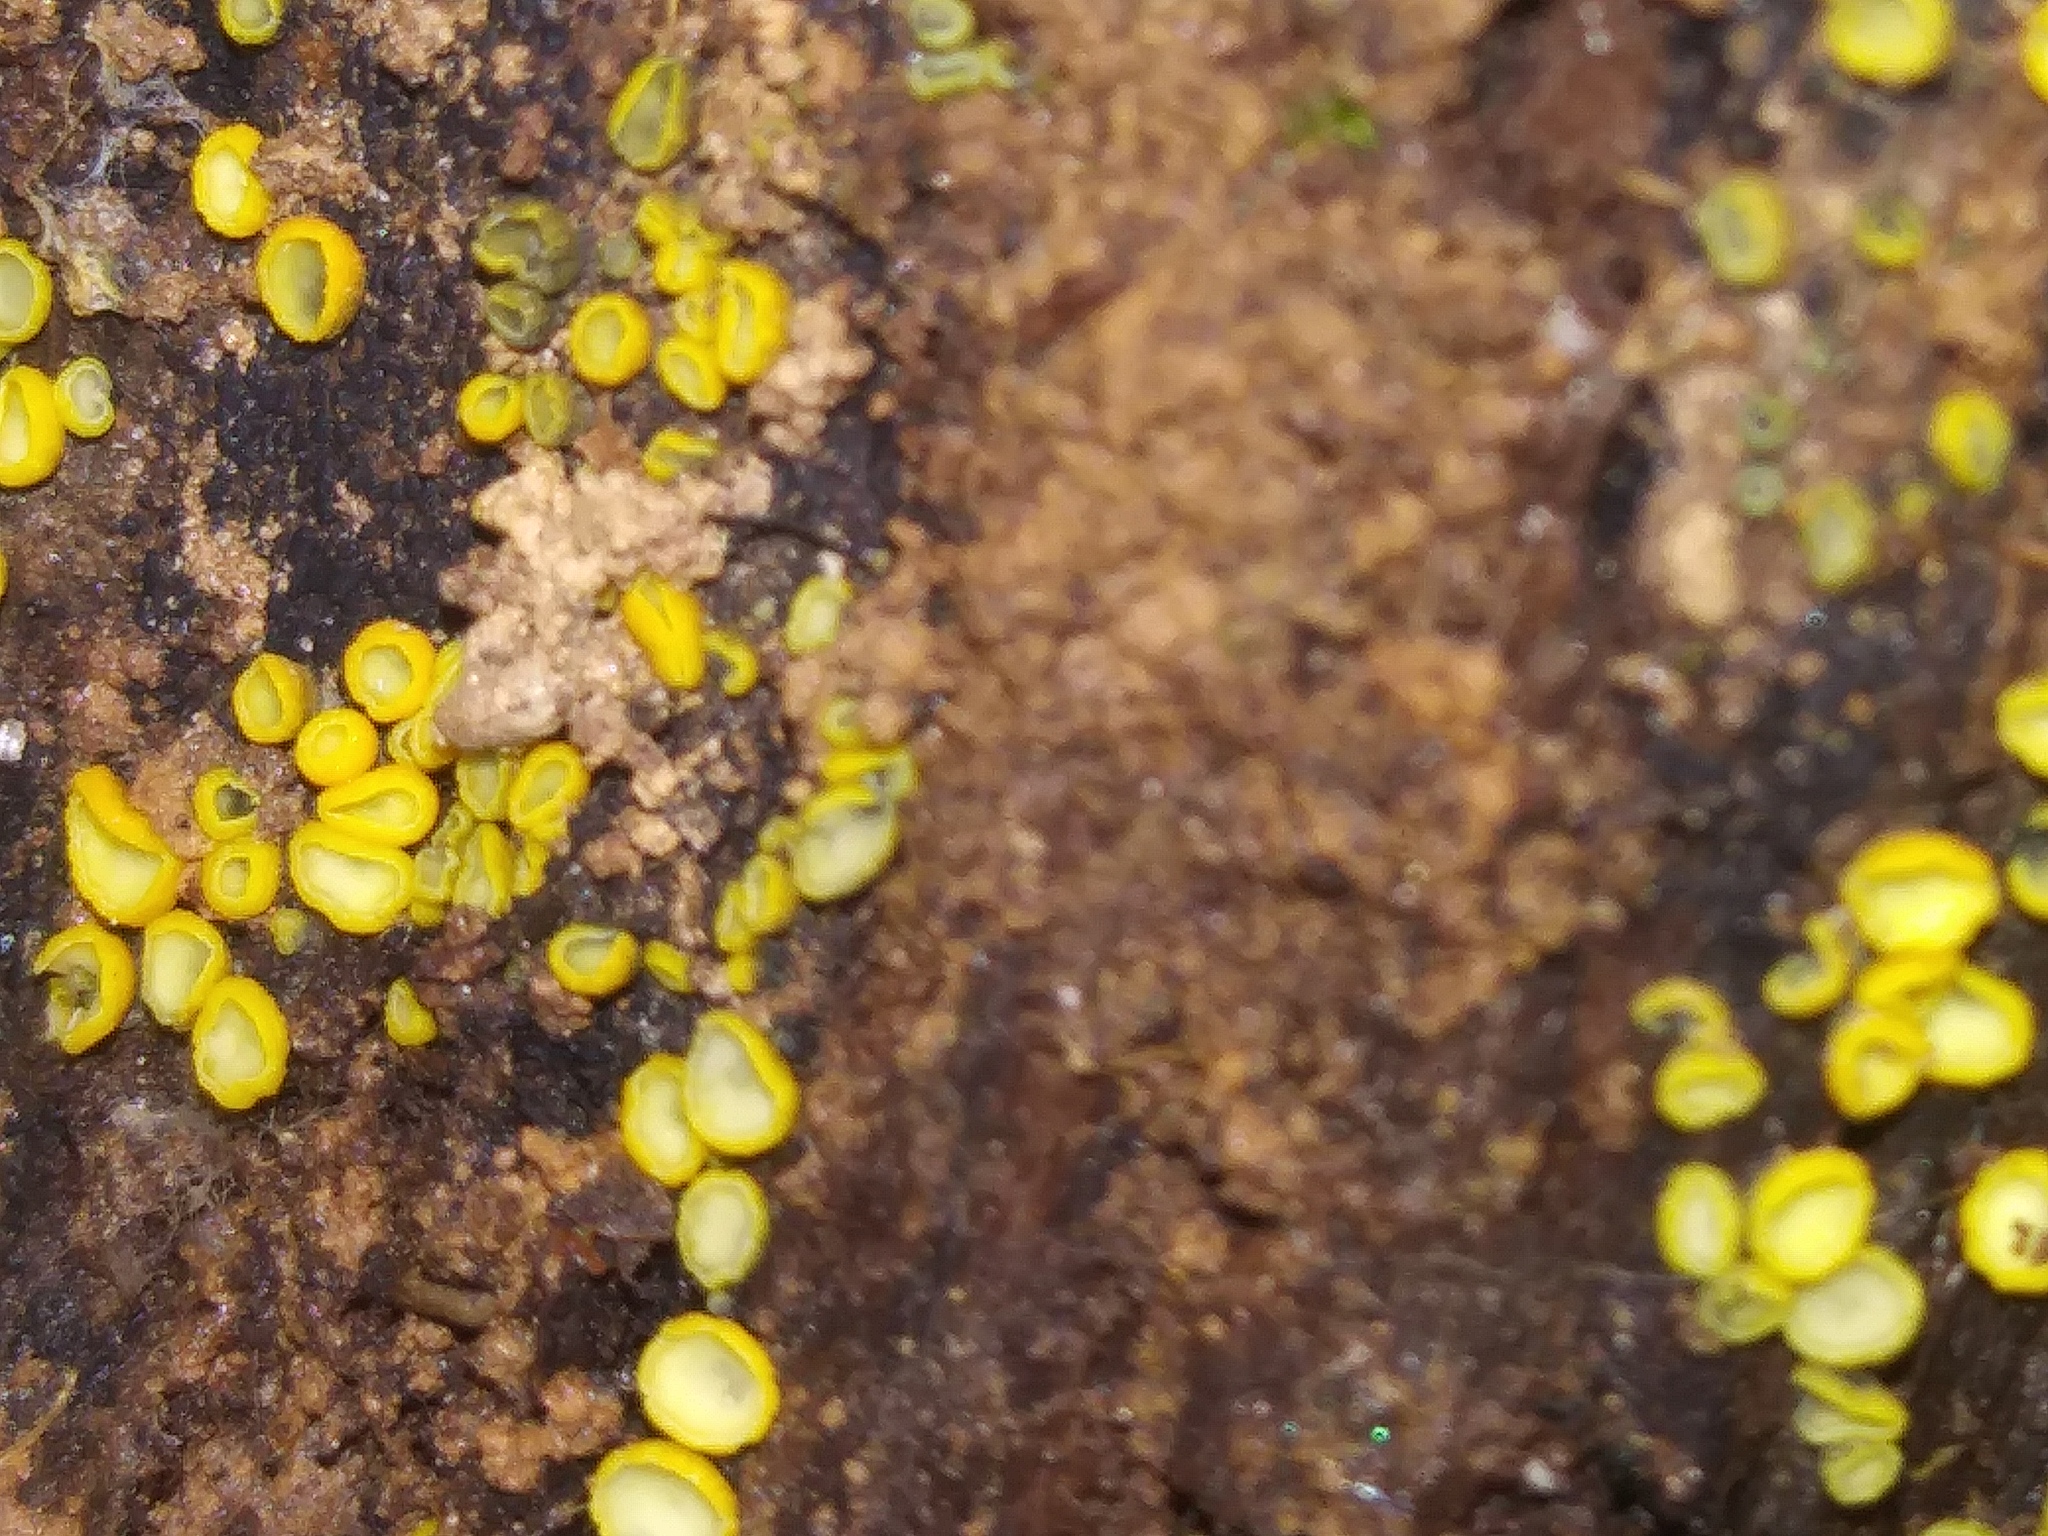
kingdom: Fungi
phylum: Ascomycota
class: Leotiomycetes
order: Helotiales
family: Pezizellaceae
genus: Calycina
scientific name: Calycina citrina
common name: Yellow fairy cups
